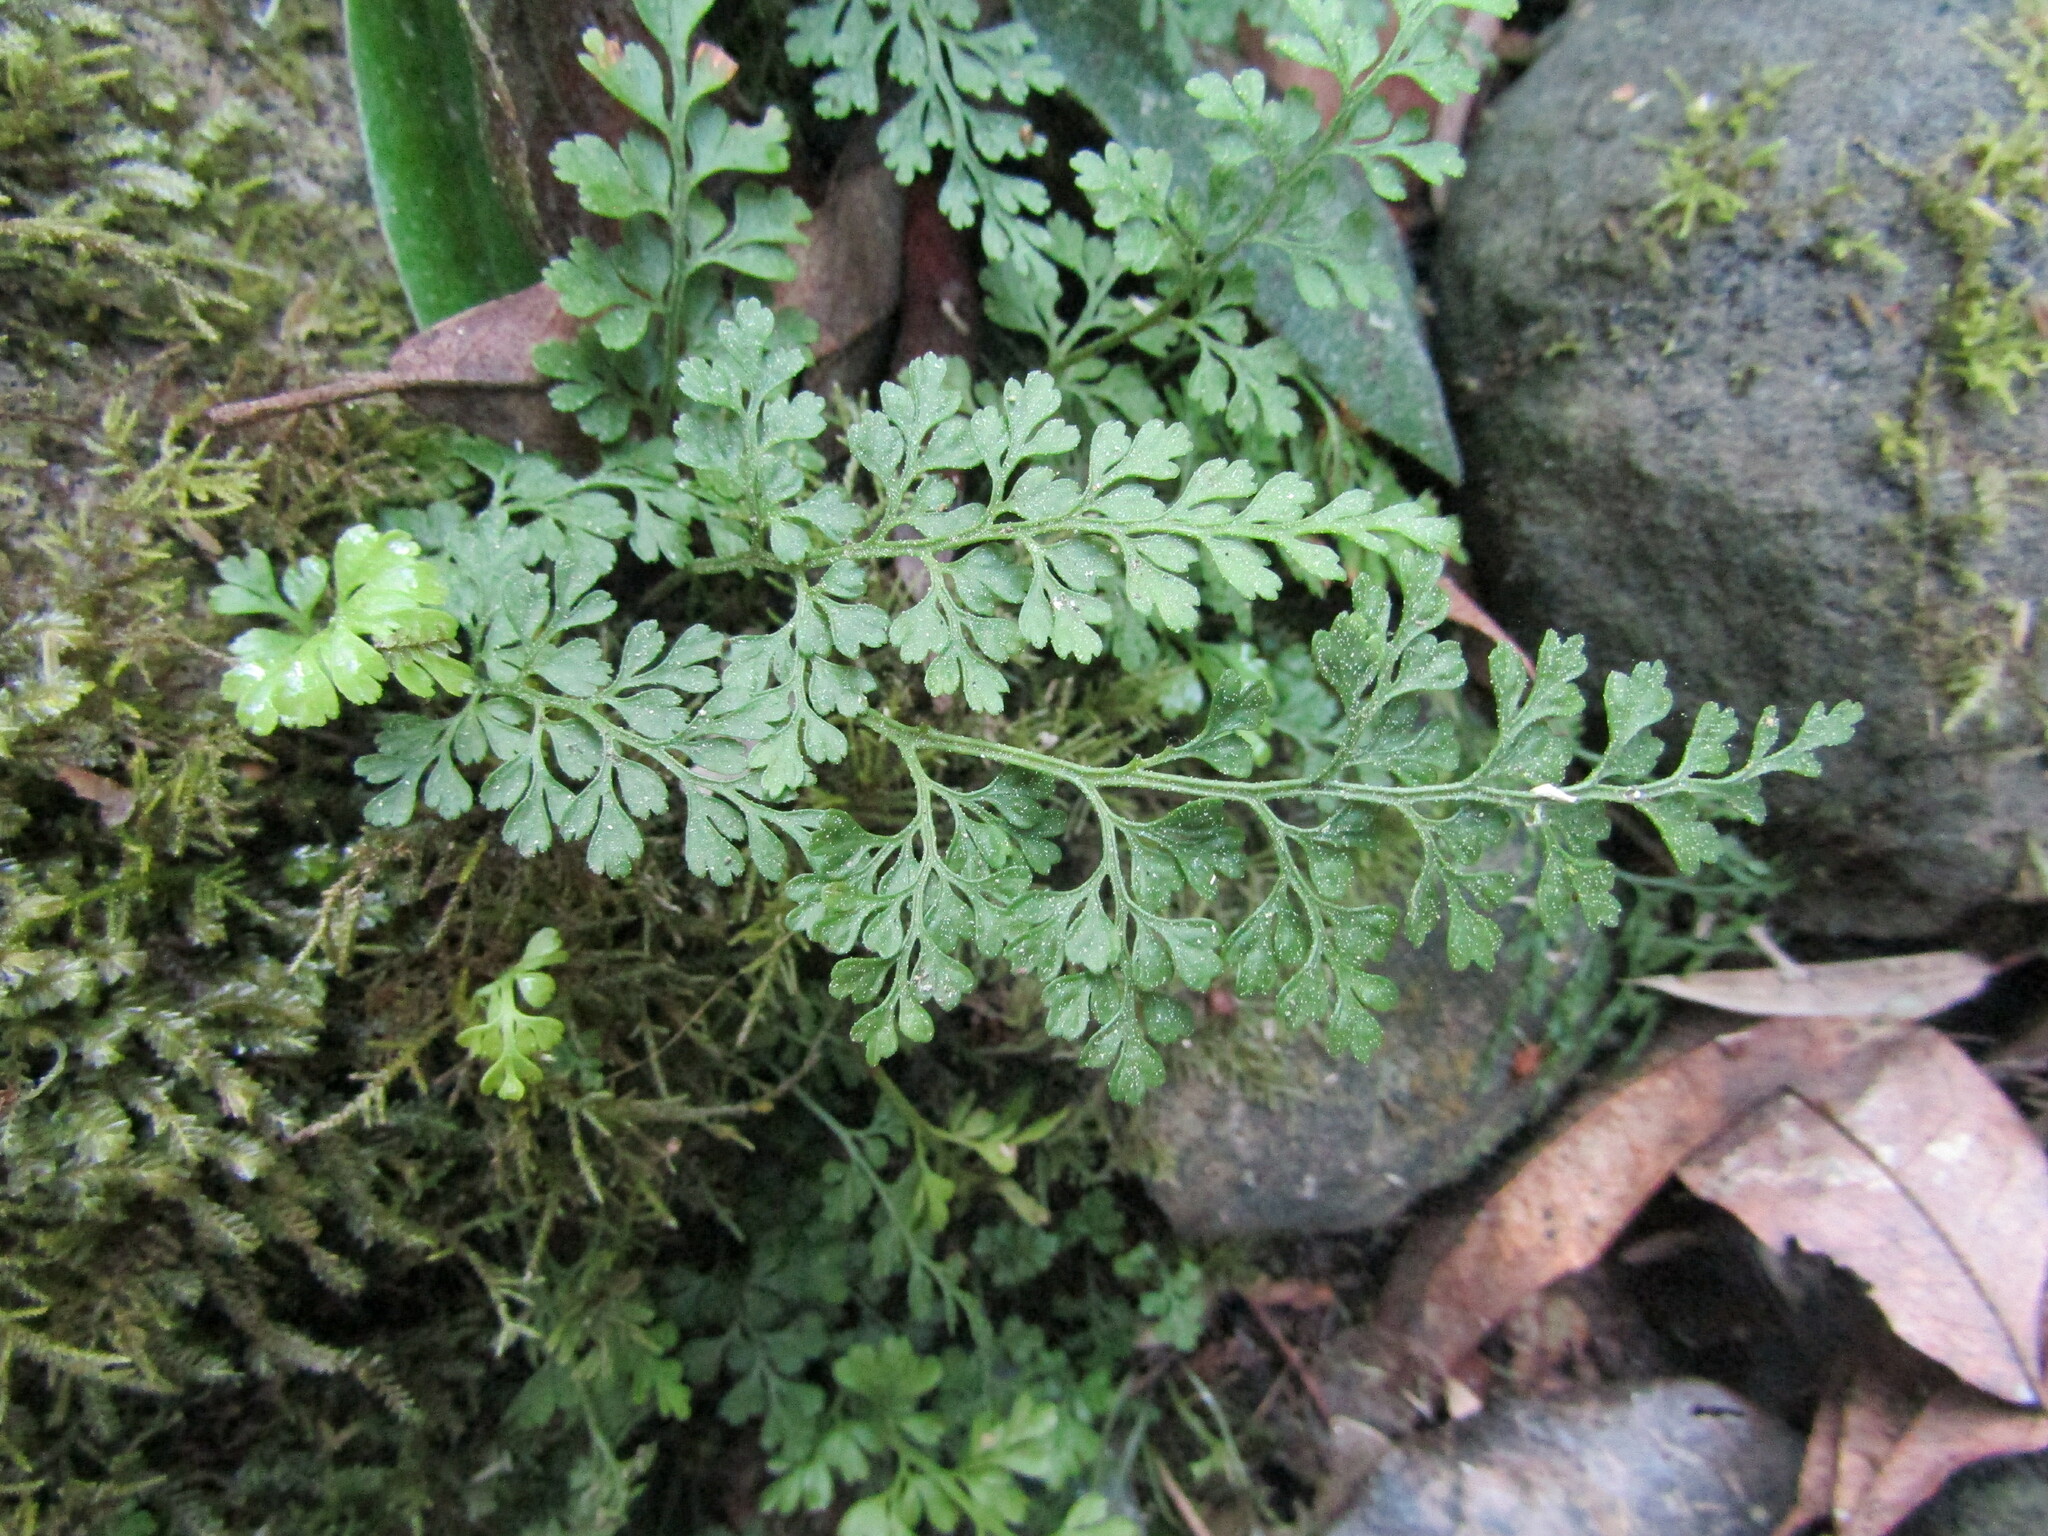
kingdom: Plantae
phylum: Tracheophyta
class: Polypodiopsida
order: Polypodiales
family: Aspleniaceae
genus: Asplenium
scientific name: Asplenium dareoides
